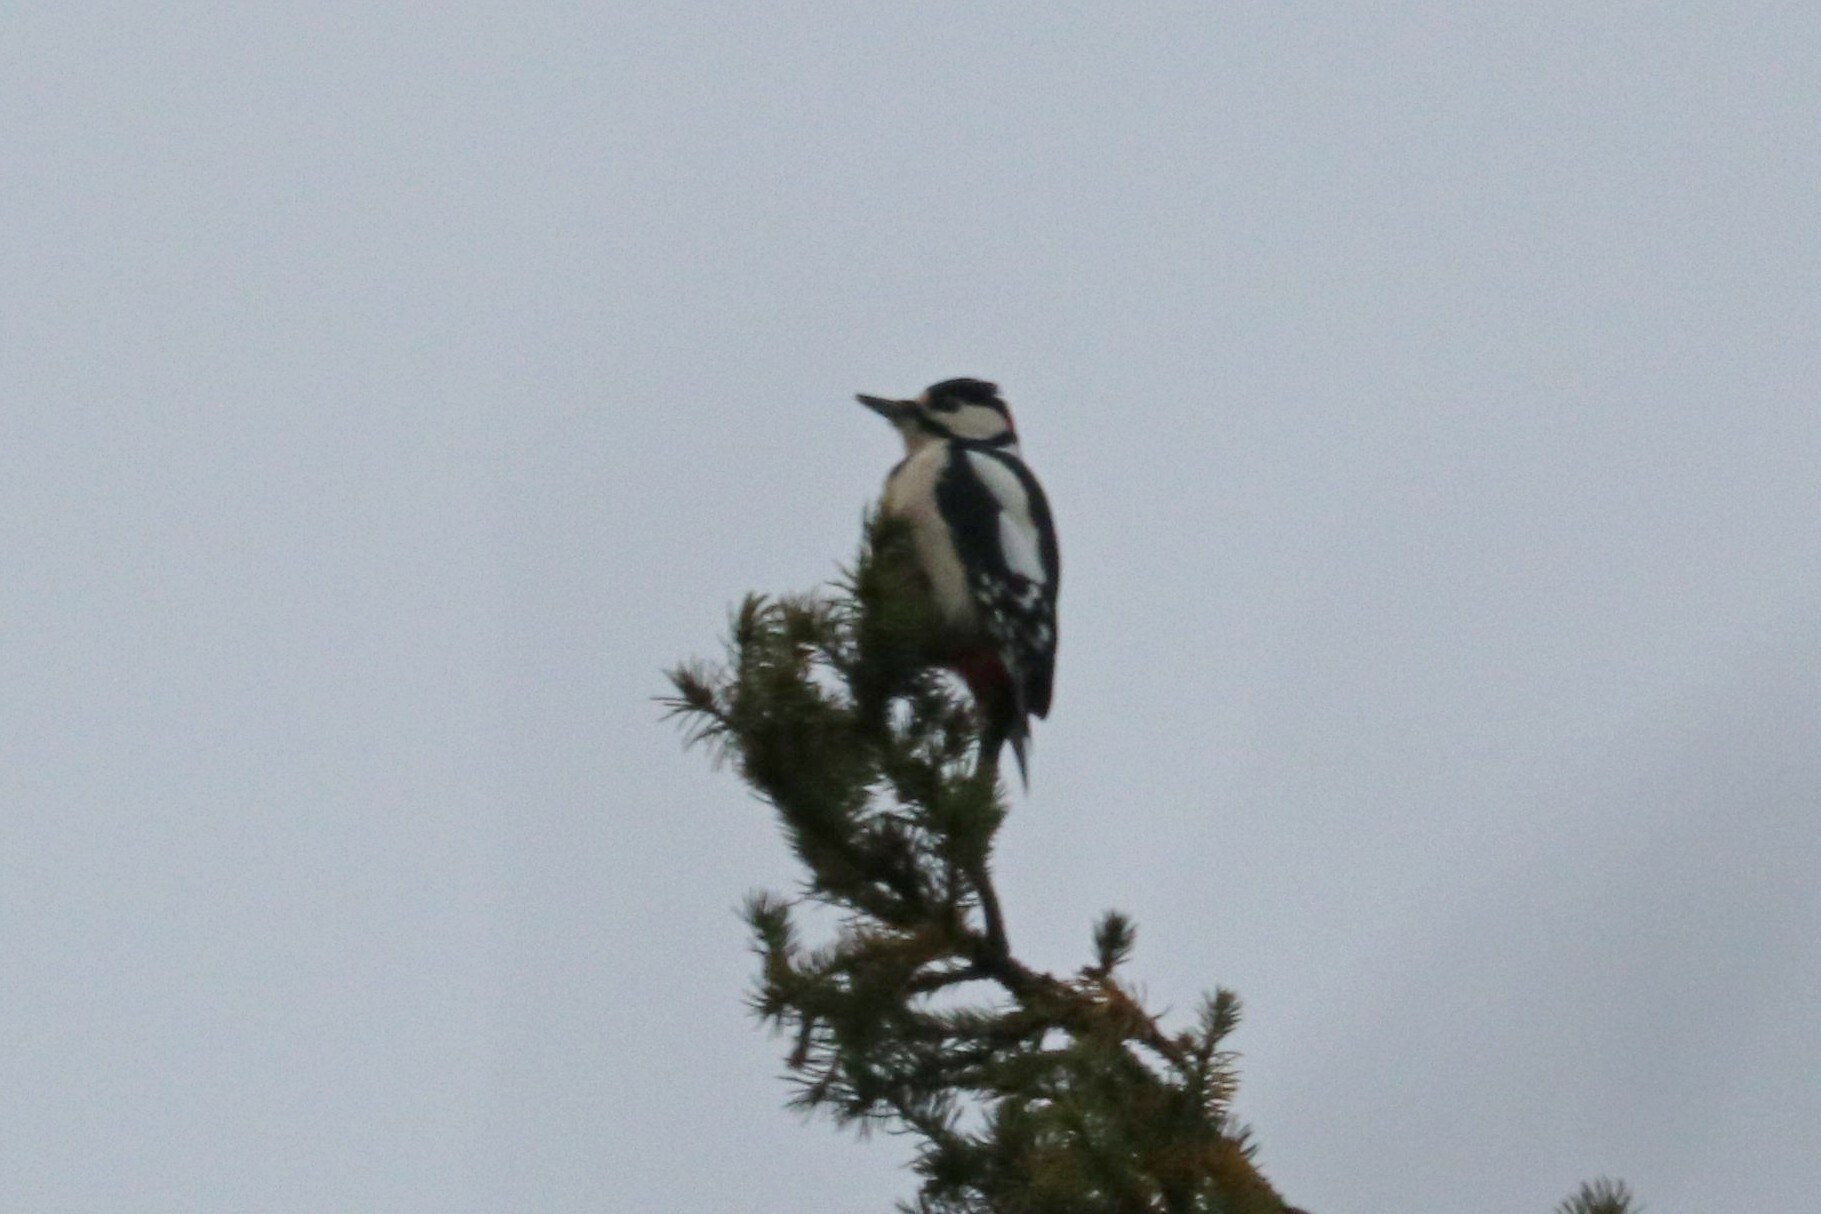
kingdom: Animalia
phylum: Chordata
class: Aves
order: Piciformes
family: Picidae
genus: Dendrocopos
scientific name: Dendrocopos major
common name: Great spotted woodpecker
